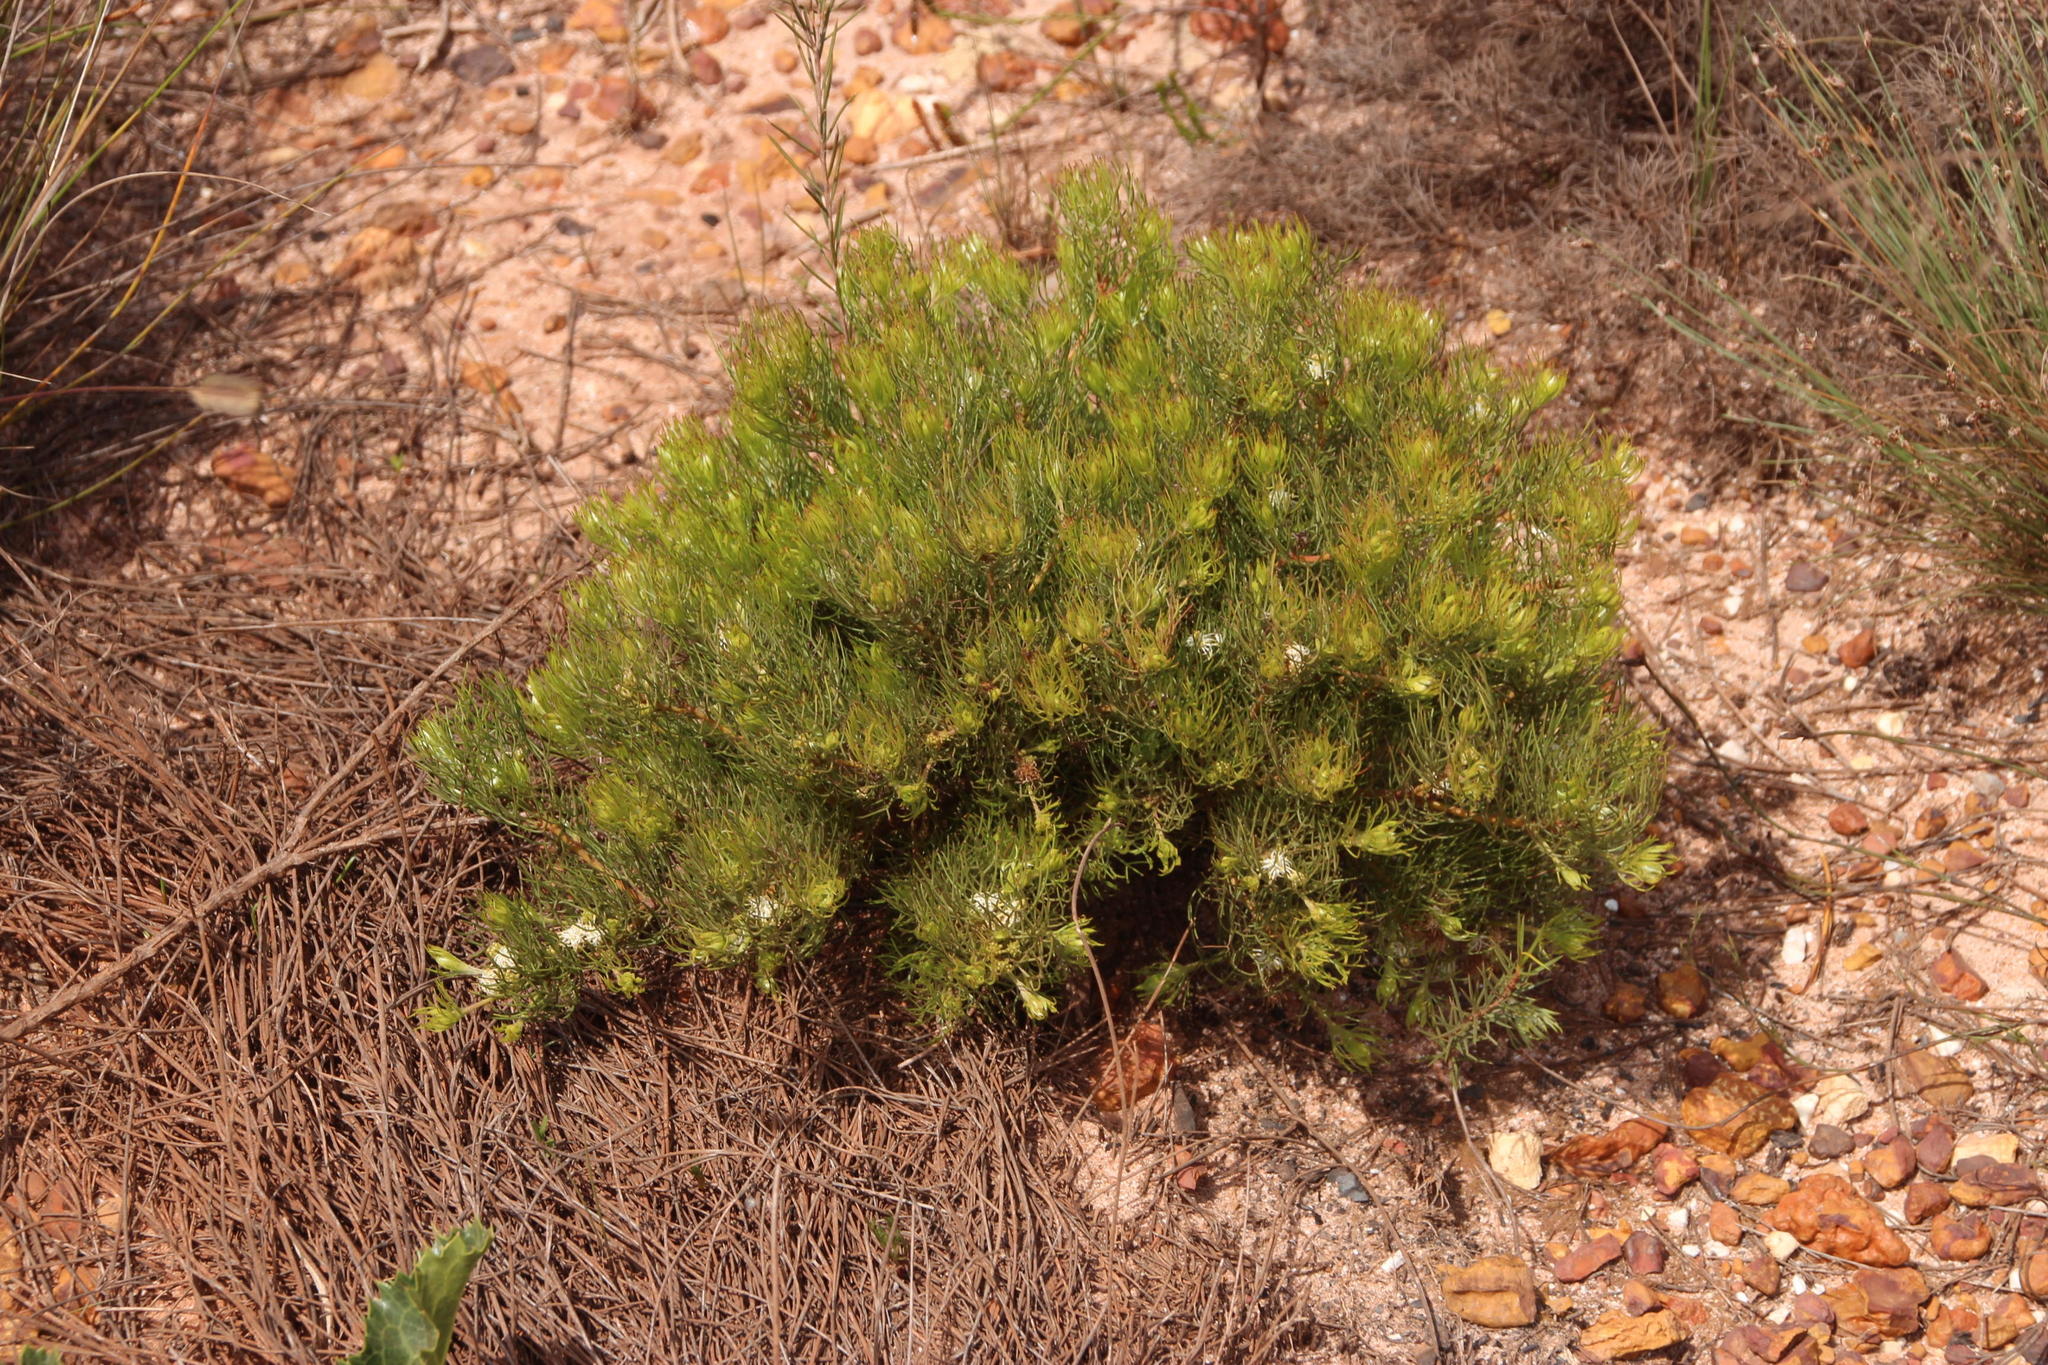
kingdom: Plantae
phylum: Tracheophyta
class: Magnoliopsida
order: Proteales
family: Proteaceae
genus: Serruria
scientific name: Serruria inconspicua
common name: Cryptic spiderhead
